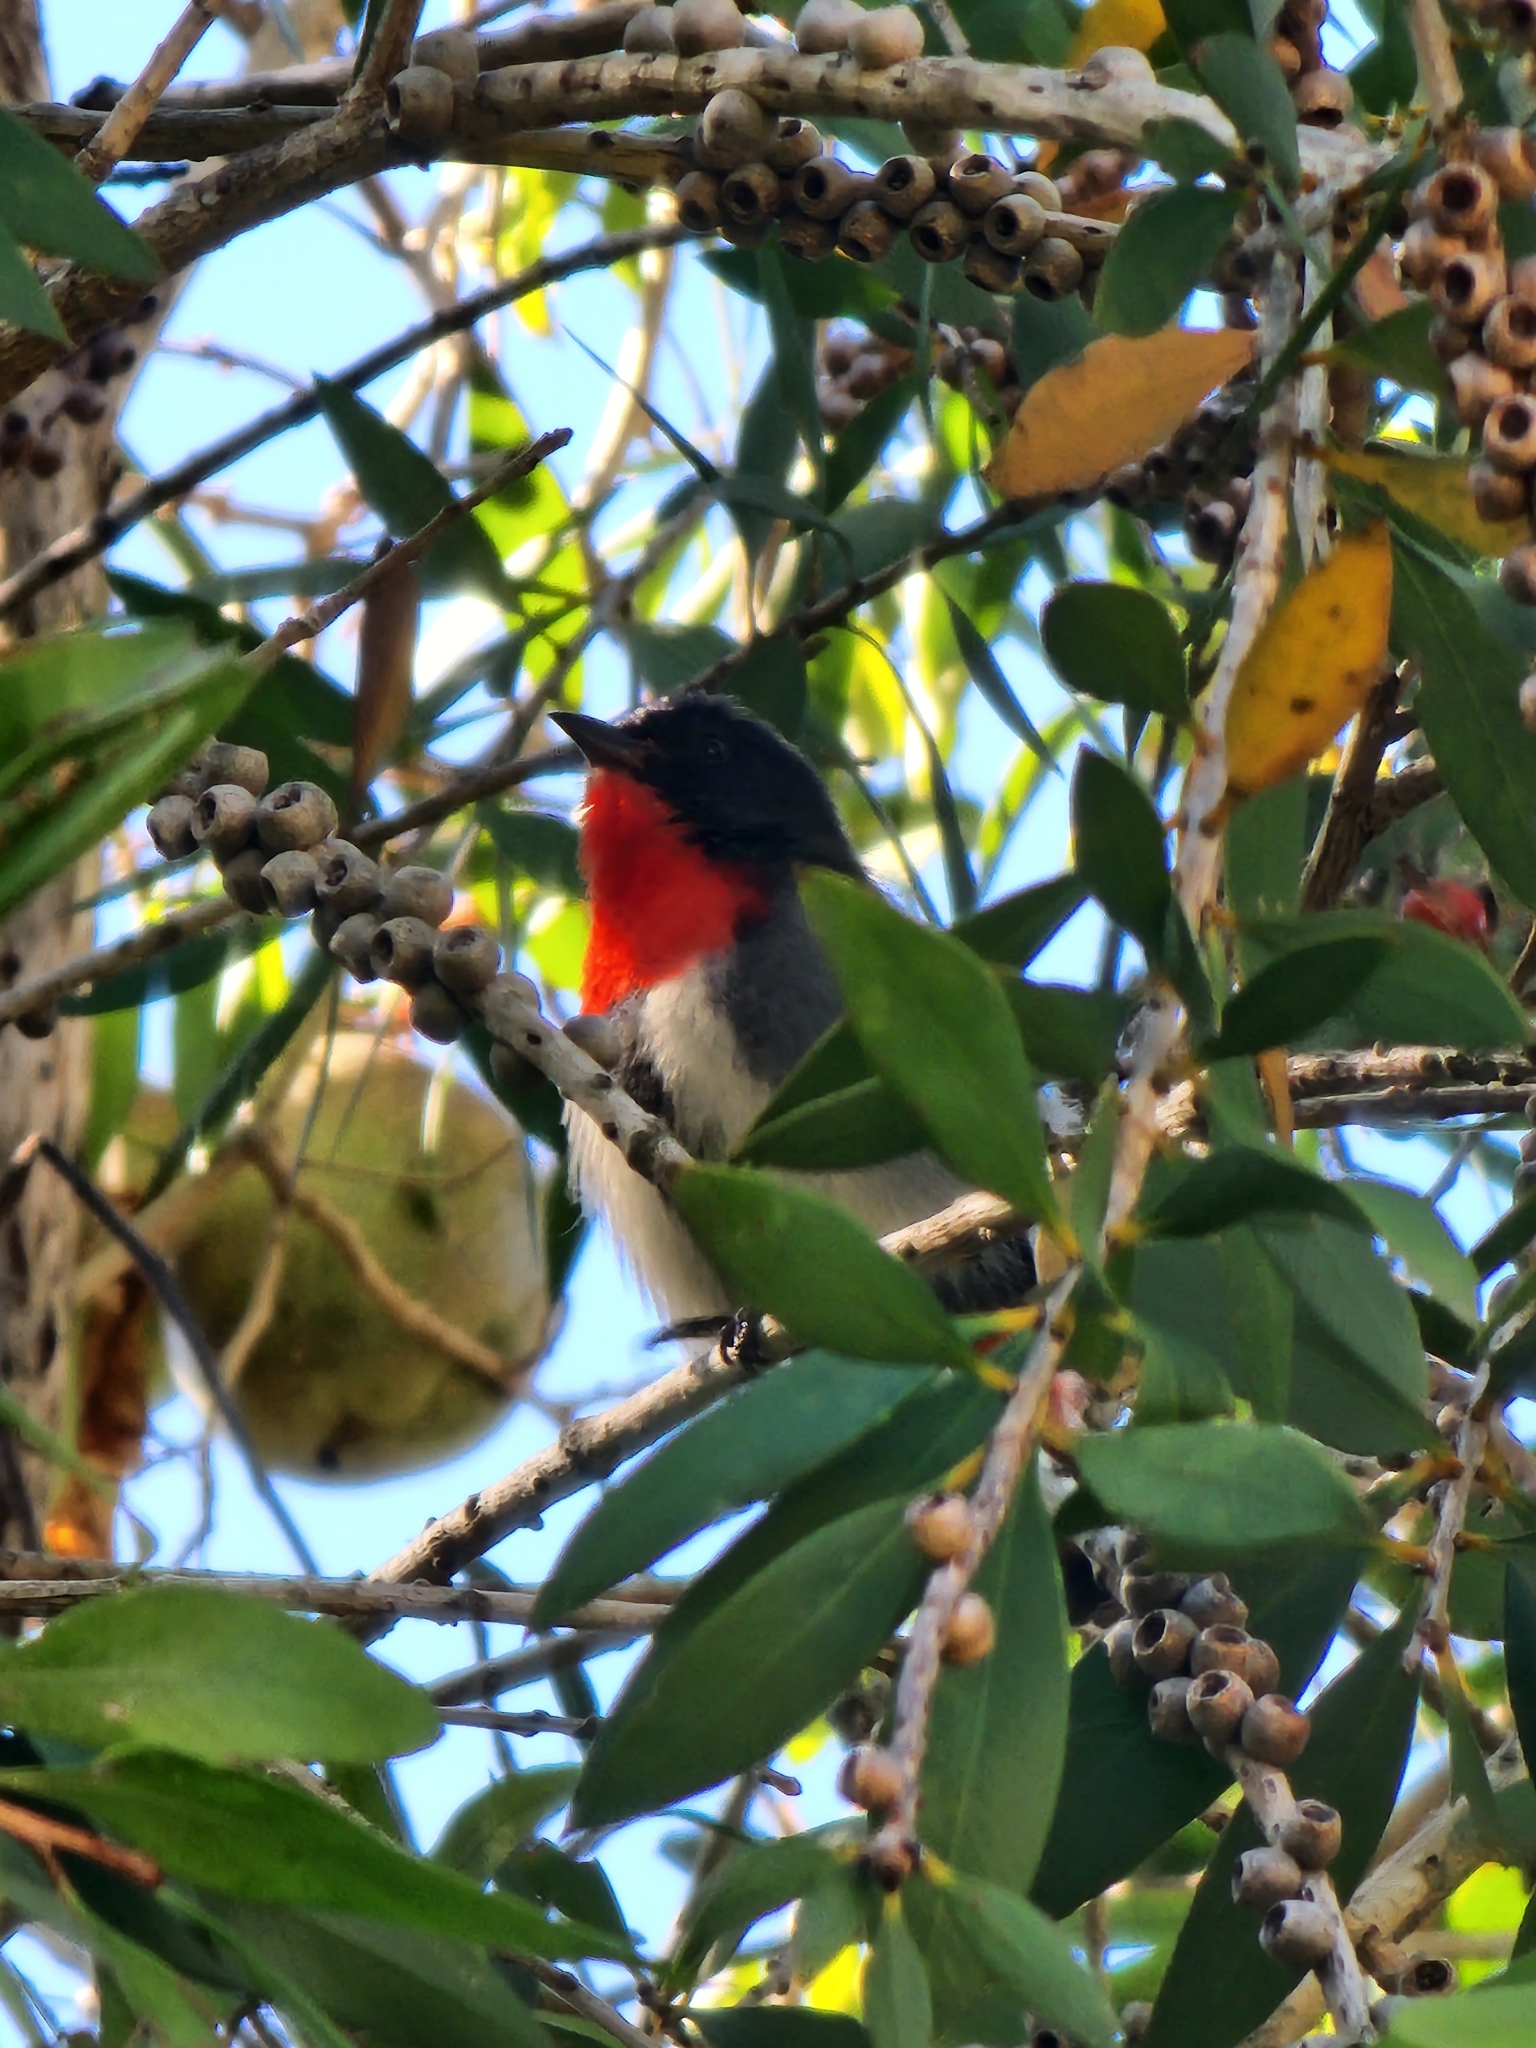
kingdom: Animalia
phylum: Chordata
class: Aves
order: Passeriformes
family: Dicaeidae
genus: Dicaeum
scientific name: Dicaeum hirundinaceum
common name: Mistletoebird
